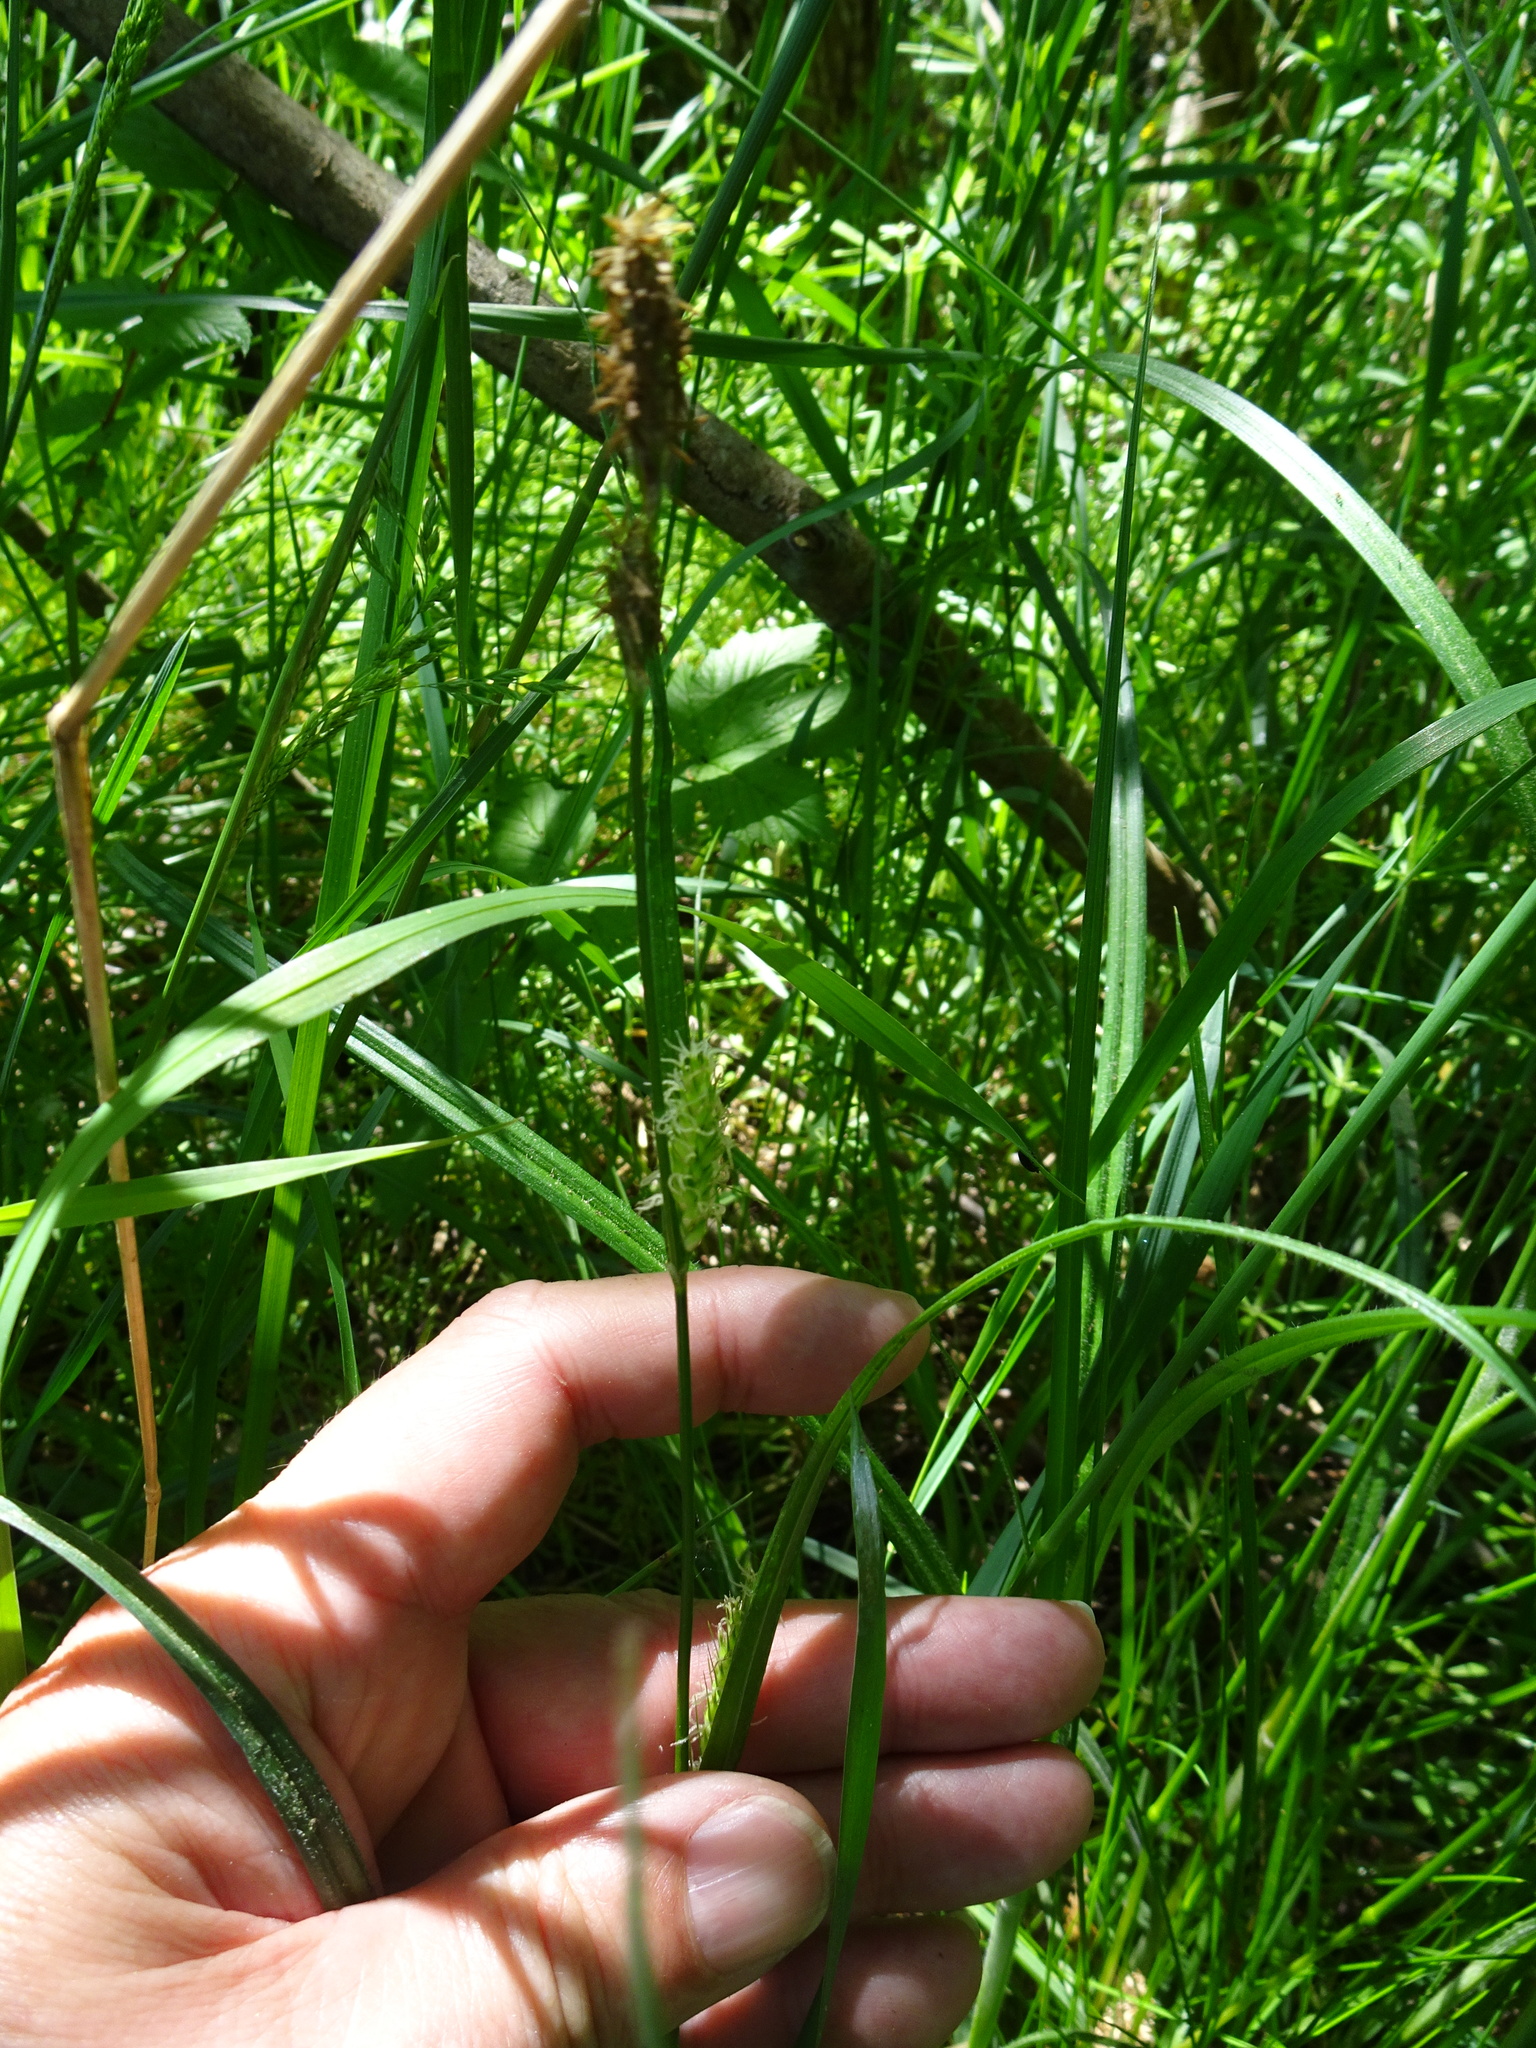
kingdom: Plantae
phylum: Tracheophyta
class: Liliopsida
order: Poales
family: Cyperaceae
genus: Carex
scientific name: Carex hirta
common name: Hairy sedge
